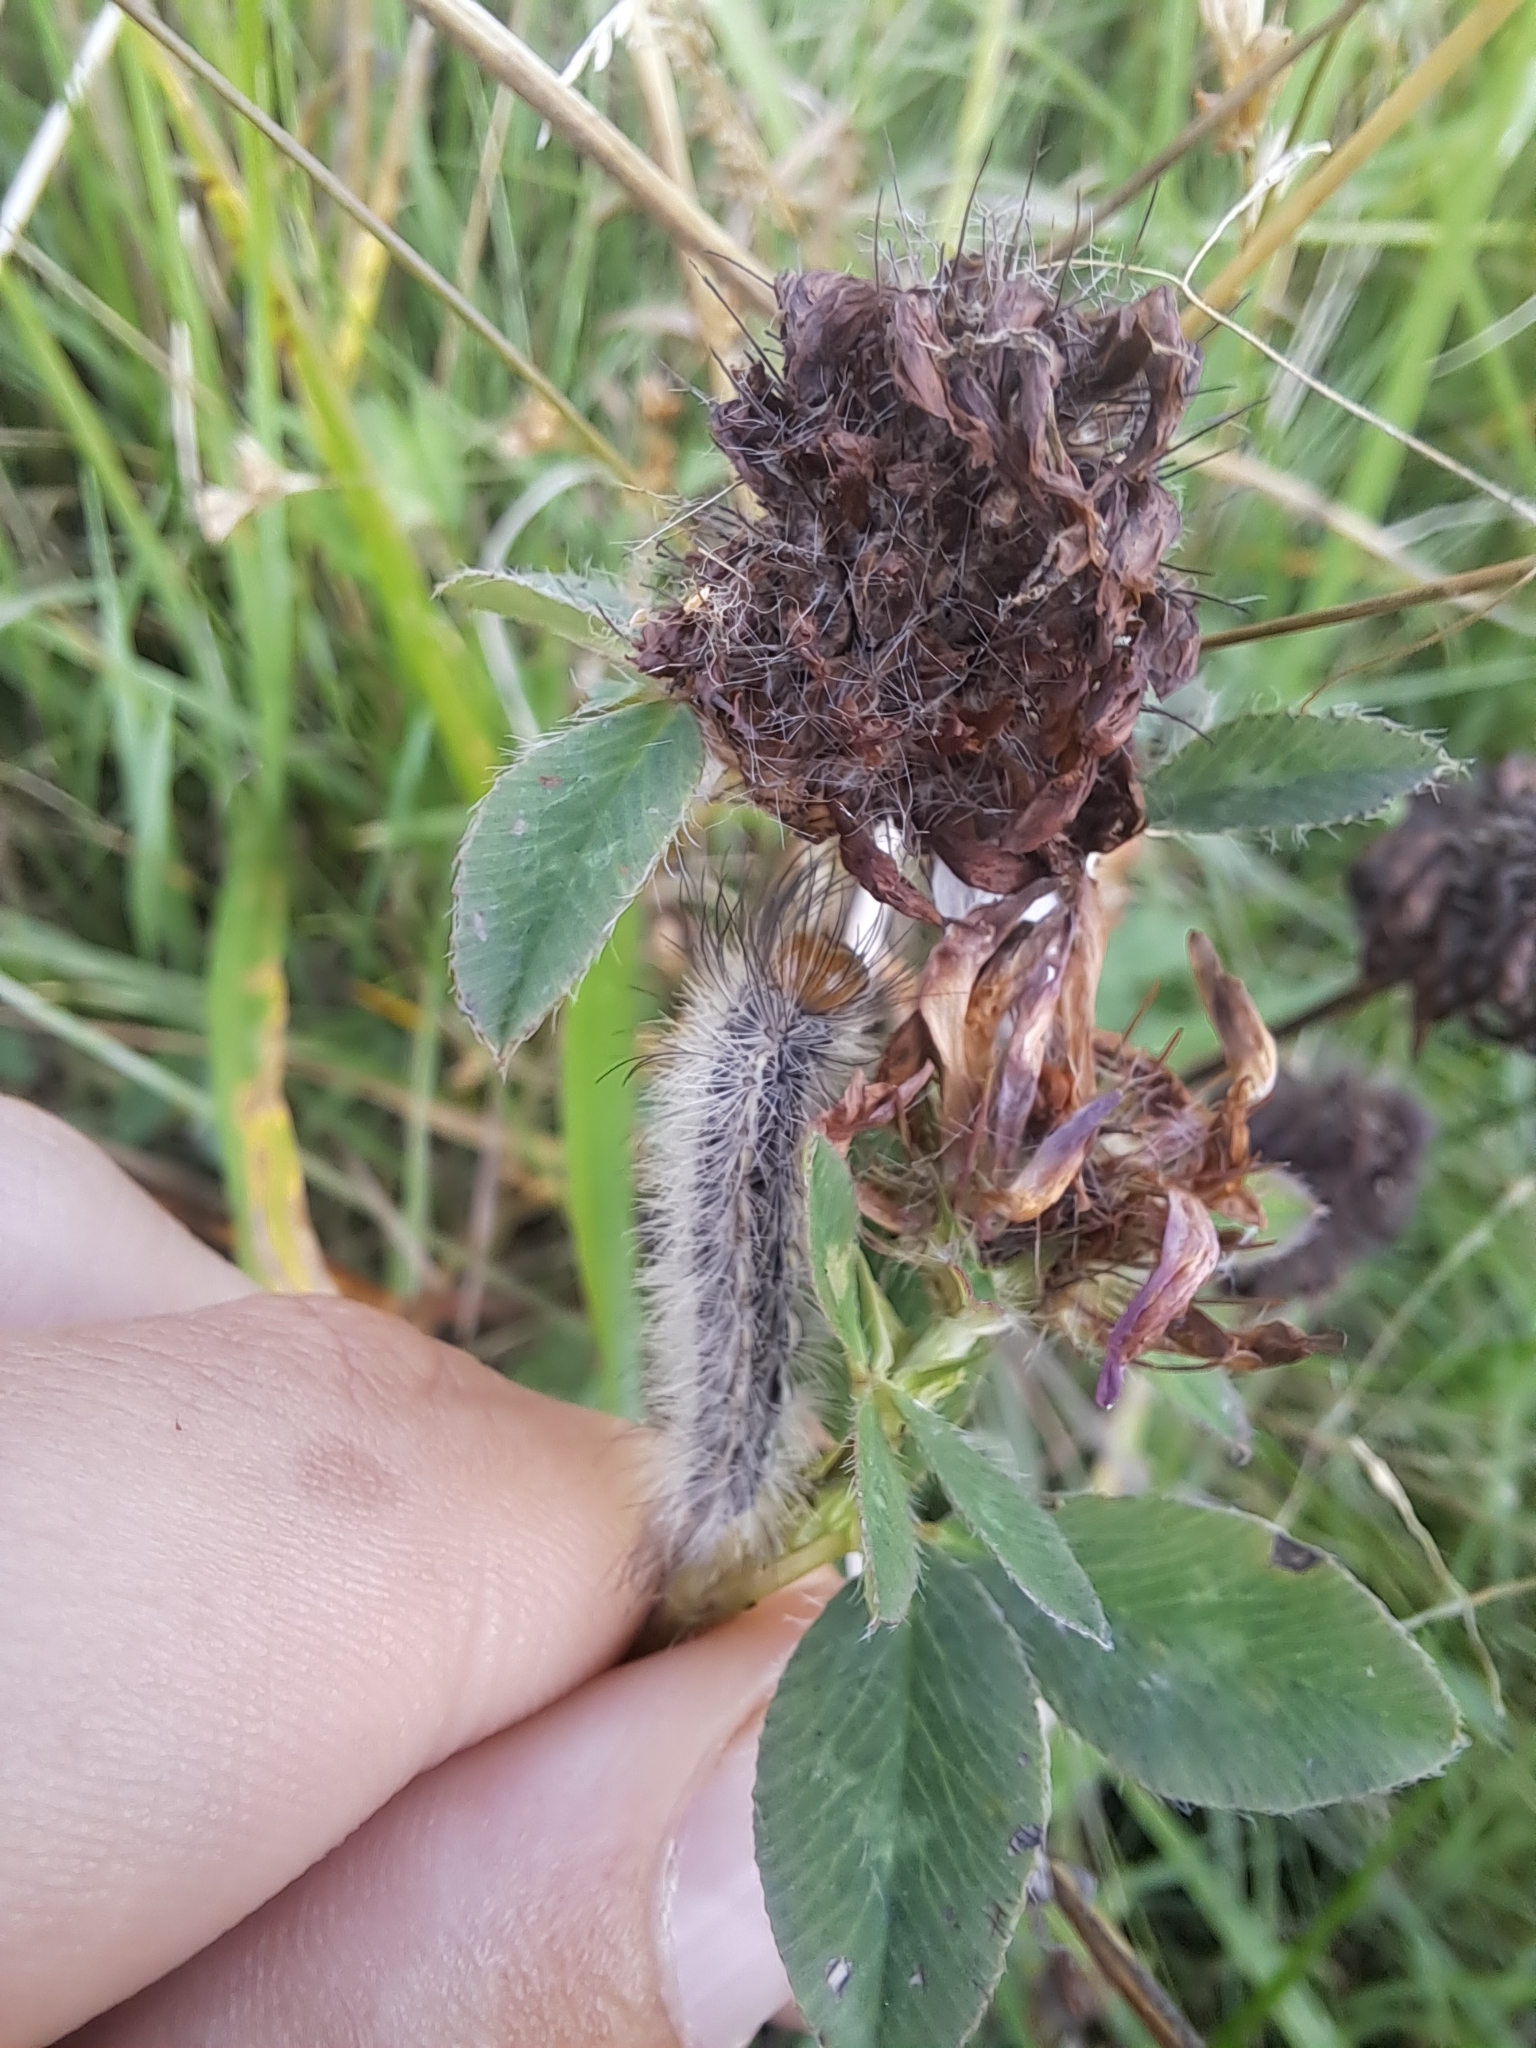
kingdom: Animalia
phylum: Arthropoda
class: Insecta
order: Lepidoptera
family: Erebidae
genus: Cisseps
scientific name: Cisseps fulvicollis
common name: Yellow-collared scape moth
